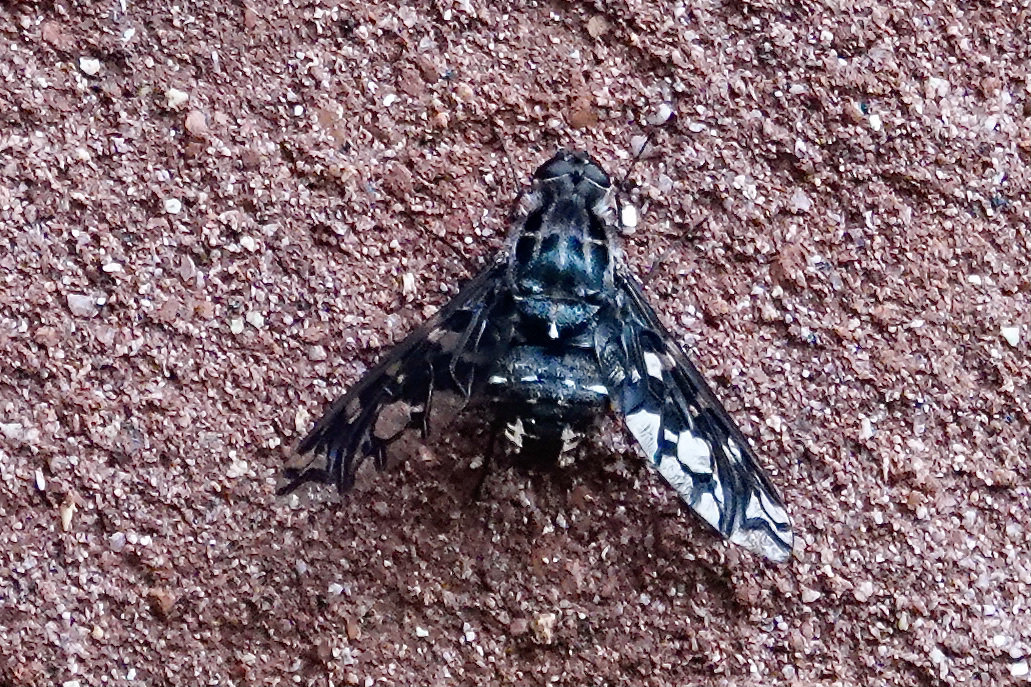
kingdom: Animalia
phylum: Arthropoda
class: Insecta
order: Diptera
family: Bombyliidae
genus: Xenox
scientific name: Xenox tigrinus
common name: Tiger bee fly
